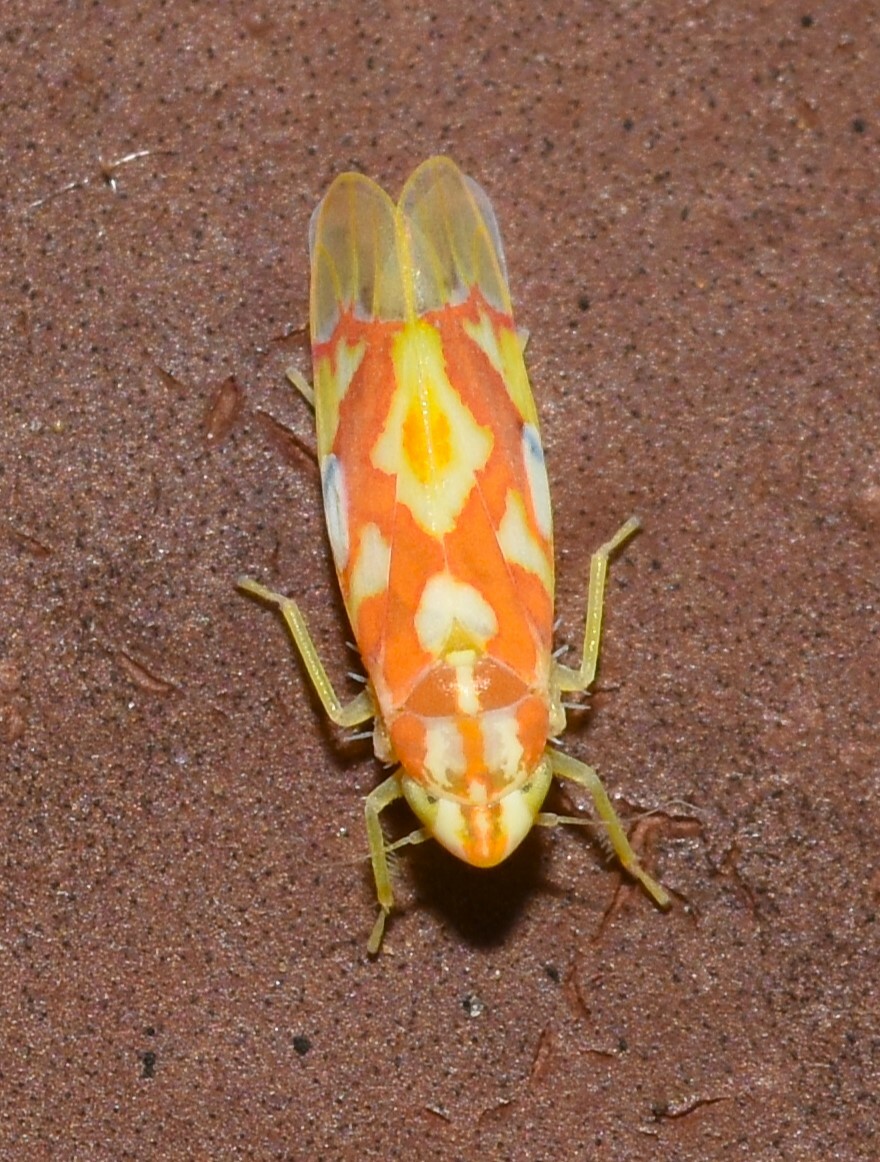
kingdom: Animalia
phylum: Arthropoda
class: Insecta
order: Hemiptera
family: Cicadellidae
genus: Erythroneura
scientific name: Erythroneura fraxa
